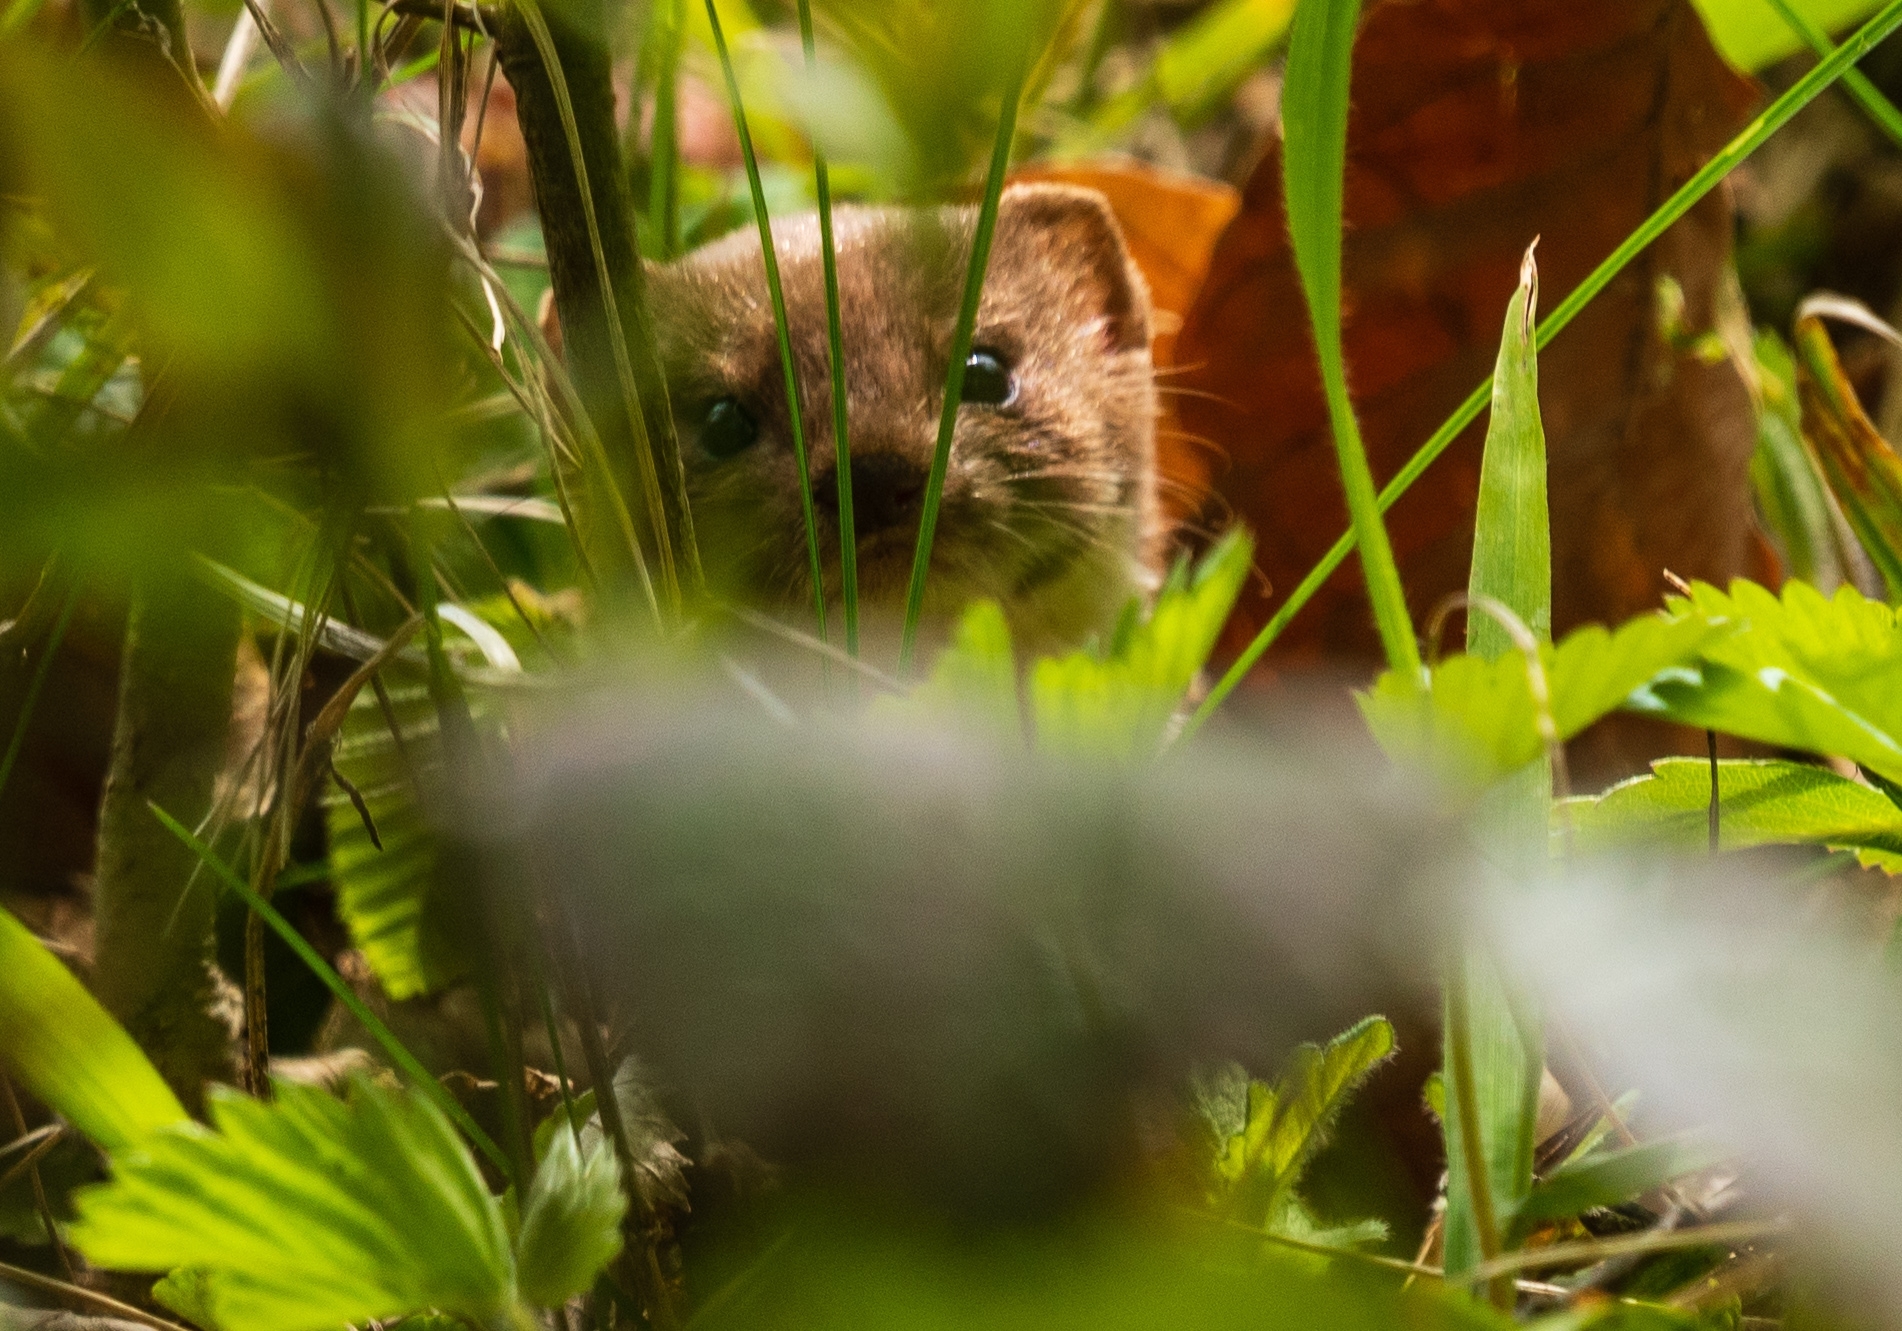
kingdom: Animalia
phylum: Chordata
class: Mammalia
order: Carnivora
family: Mustelidae
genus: Mustela
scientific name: Mustela nivalis
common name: Least weasel
